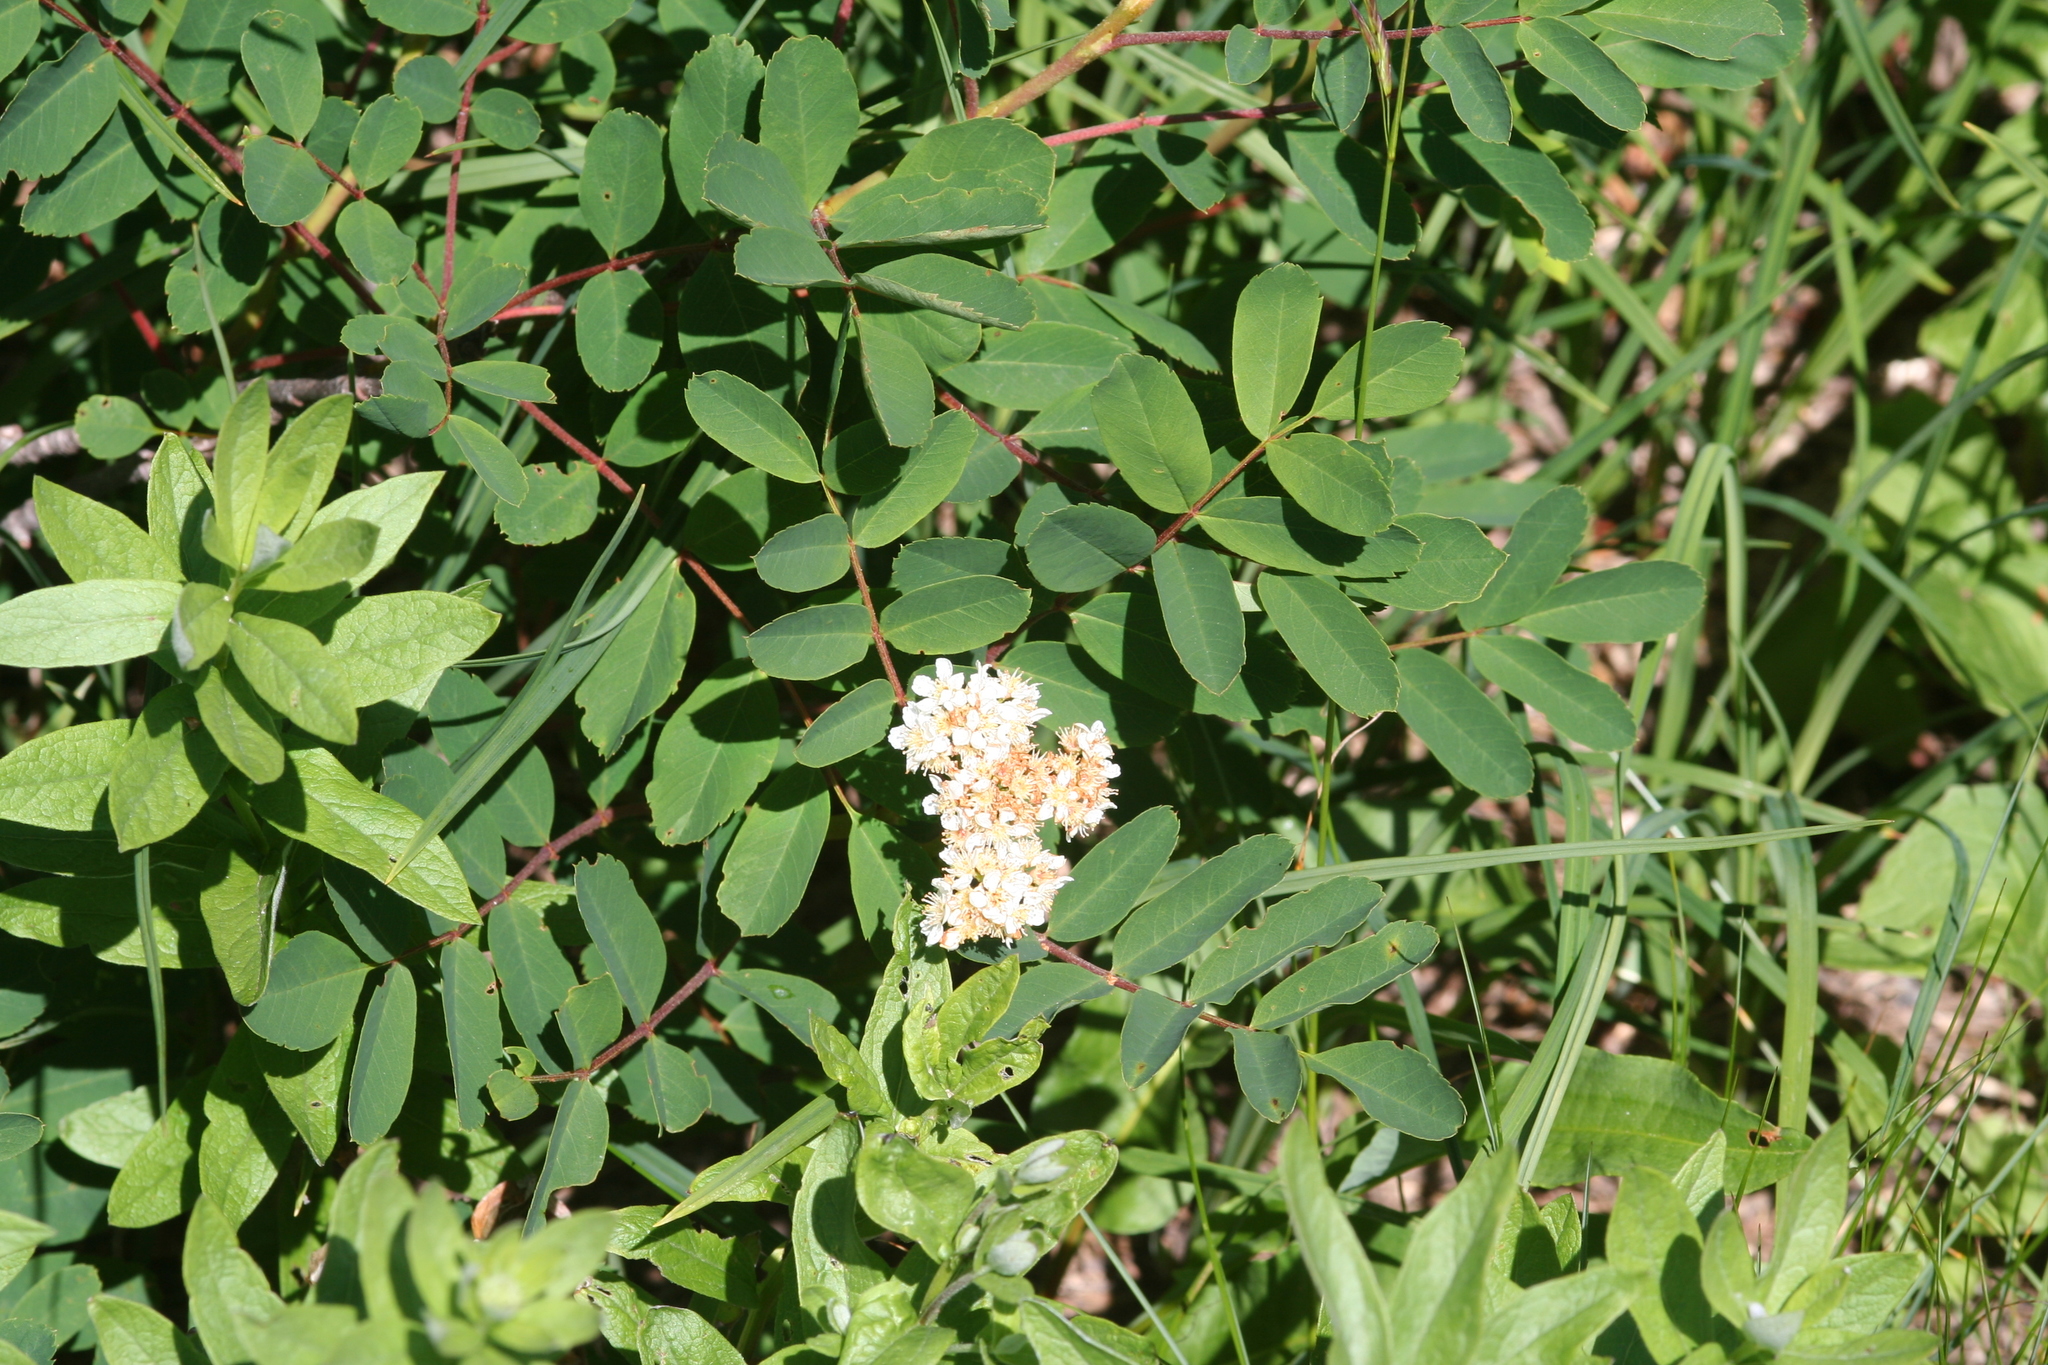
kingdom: Plantae
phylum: Tracheophyta
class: Magnoliopsida
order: Rosales
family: Rosaceae
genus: Sorbus
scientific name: Sorbus sitchensis
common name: Sitka mountain-ash
